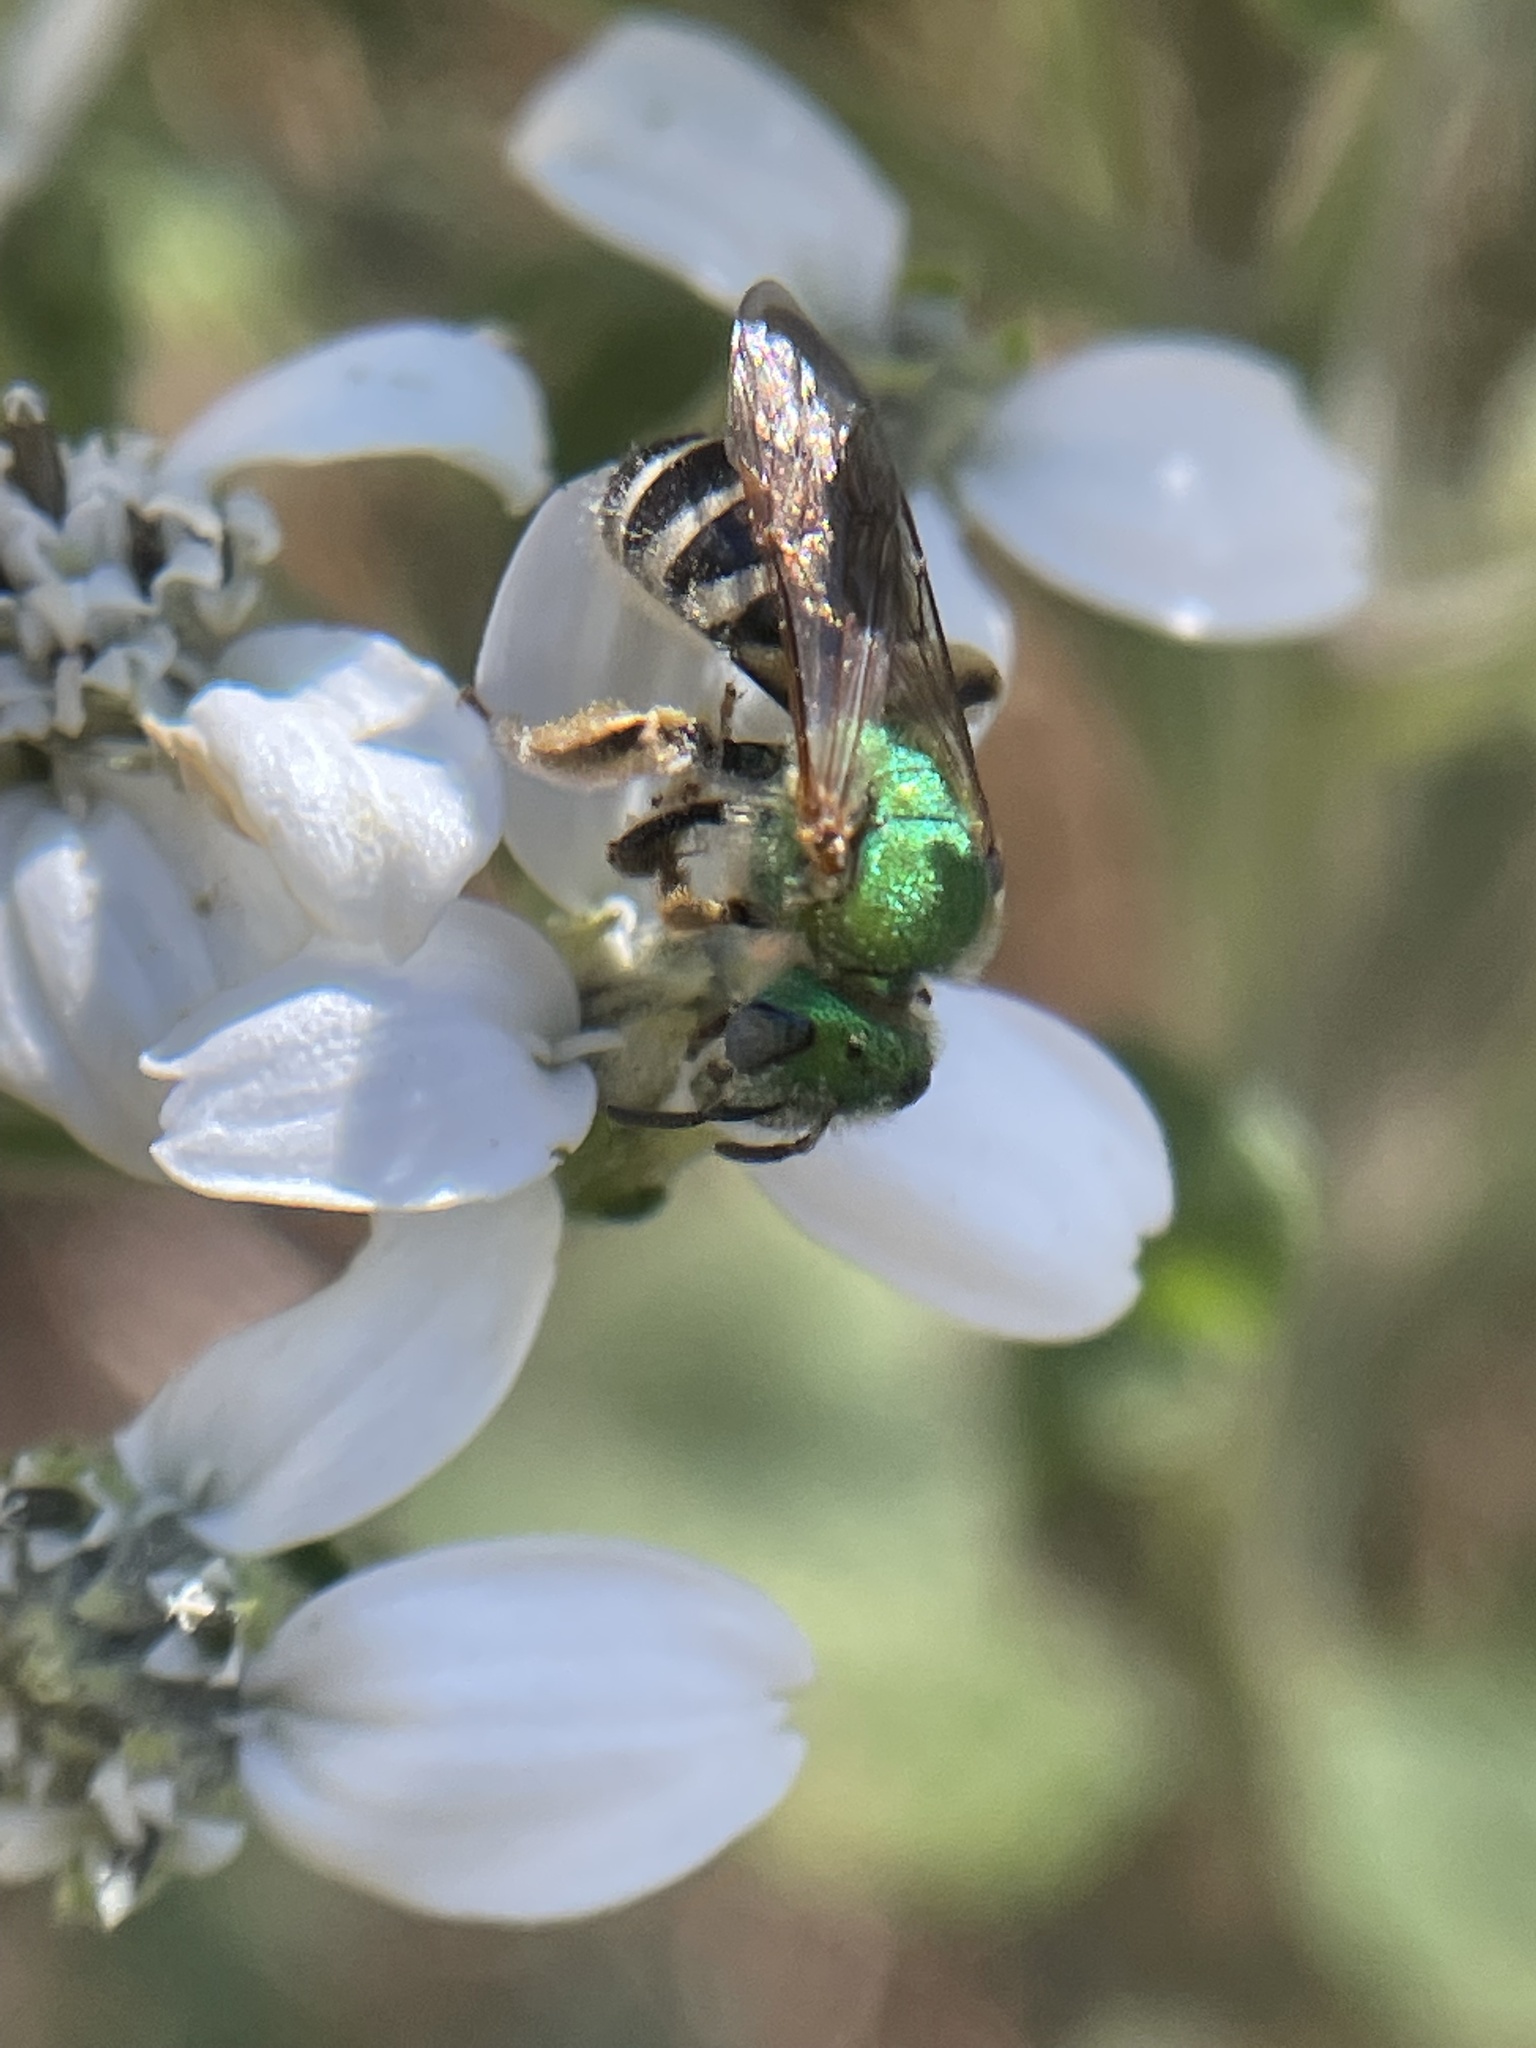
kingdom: Animalia
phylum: Arthropoda
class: Insecta
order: Hymenoptera
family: Halictidae
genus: Agapostemon
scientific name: Agapostemon virescens
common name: Bicolored striped sweat bee
